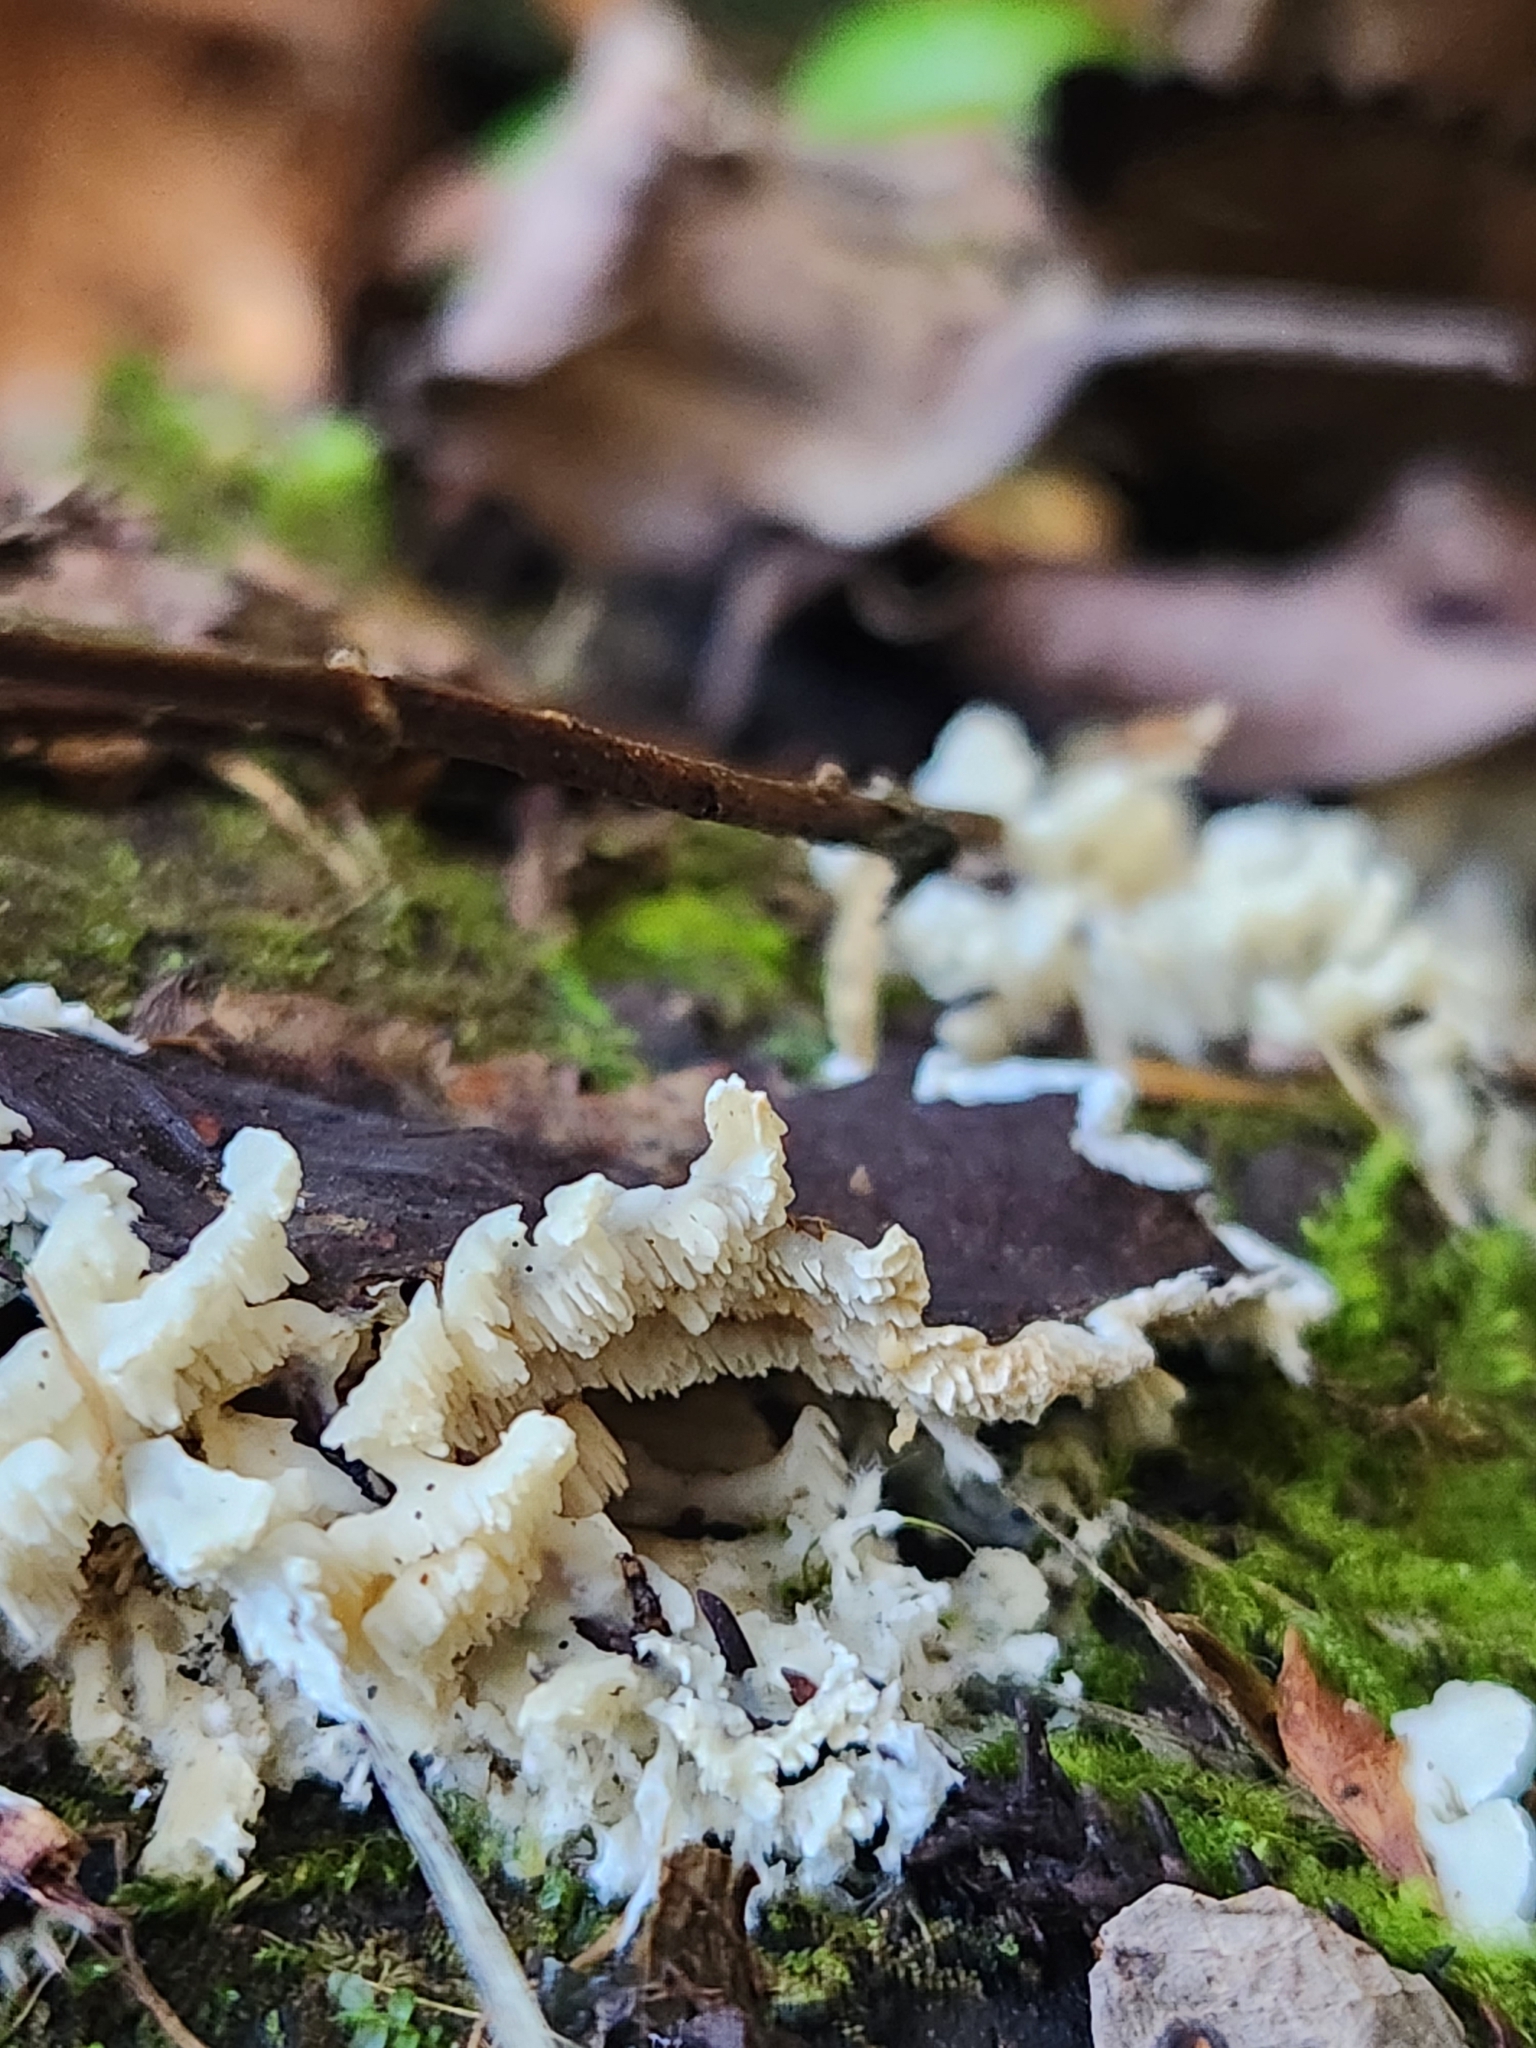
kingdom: Fungi
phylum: Basidiomycota
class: Agaricomycetes
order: Polyporales
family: Cerrenaceae
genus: Cerrena
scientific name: Cerrena zonata
